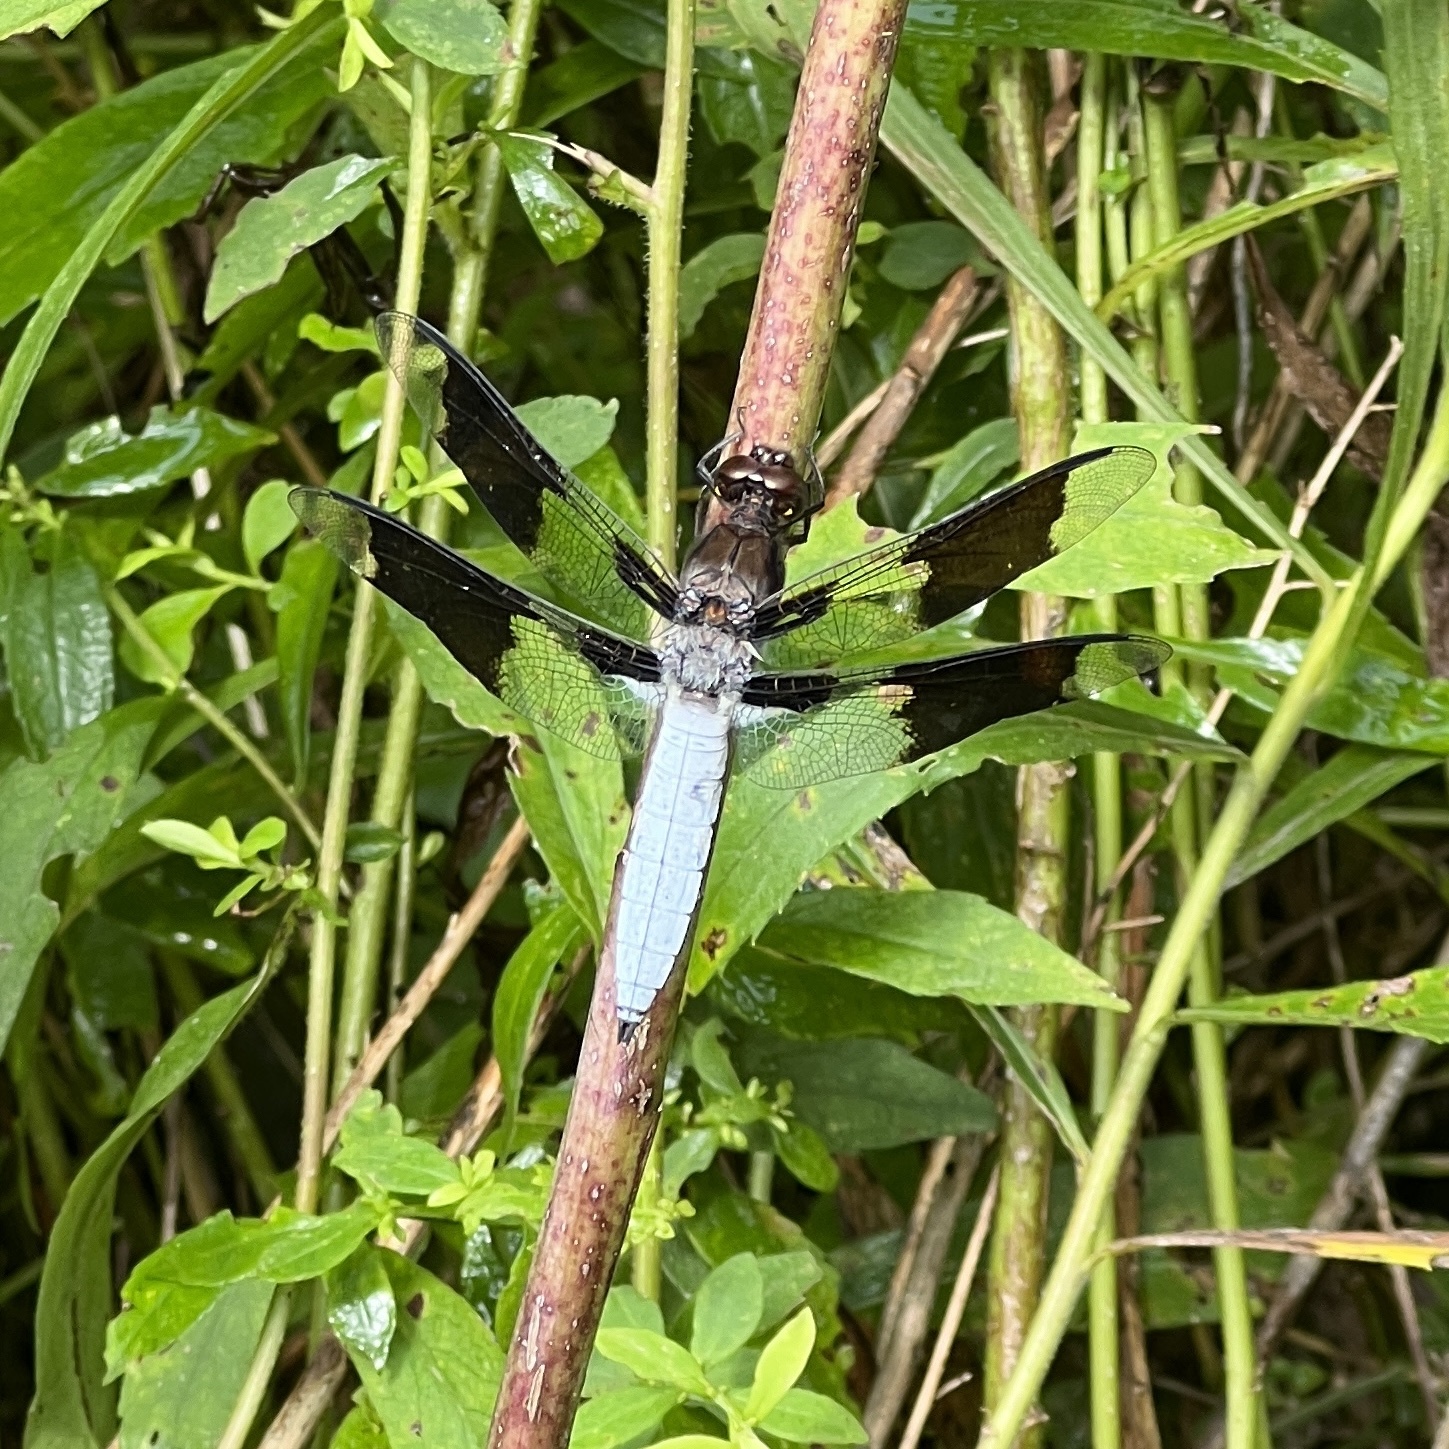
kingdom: Animalia
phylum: Arthropoda
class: Insecta
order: Odonata
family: Libellulidae
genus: Plathemis
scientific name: Plathemis lydia
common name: Common whitetail
